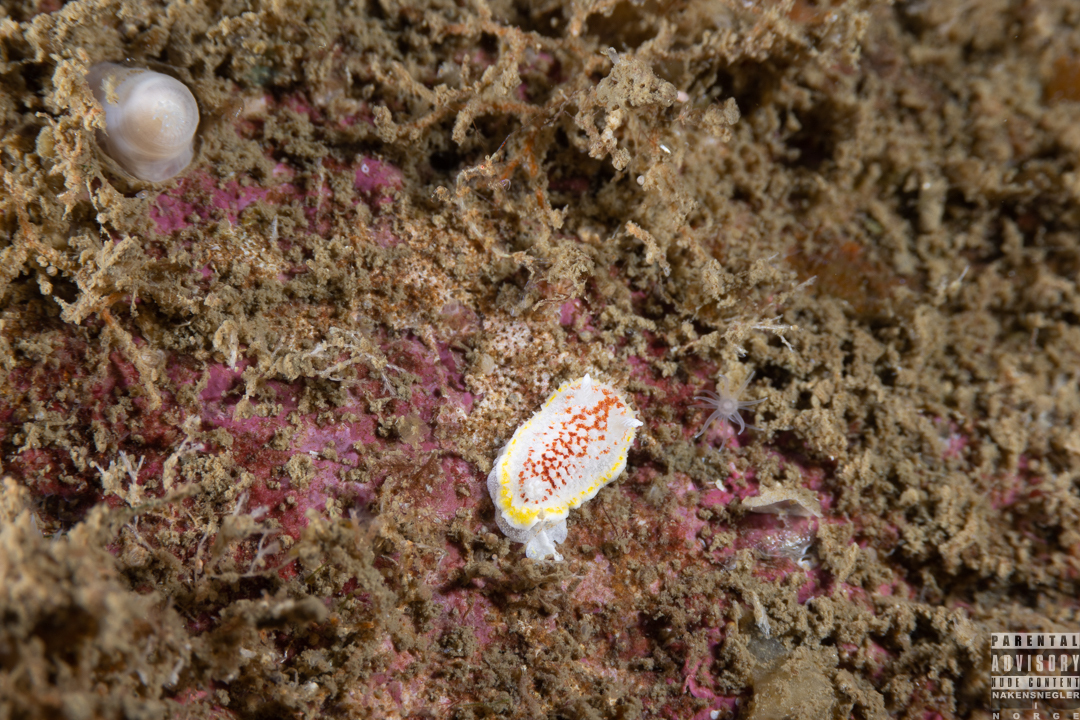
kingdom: Animalia
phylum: Mollusca
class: Gastropoda
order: Nudibranchia
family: Calycidorididae
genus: Diaphorodoris
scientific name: Diaphorodoris luteocincta
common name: Fried egg nudibranch
